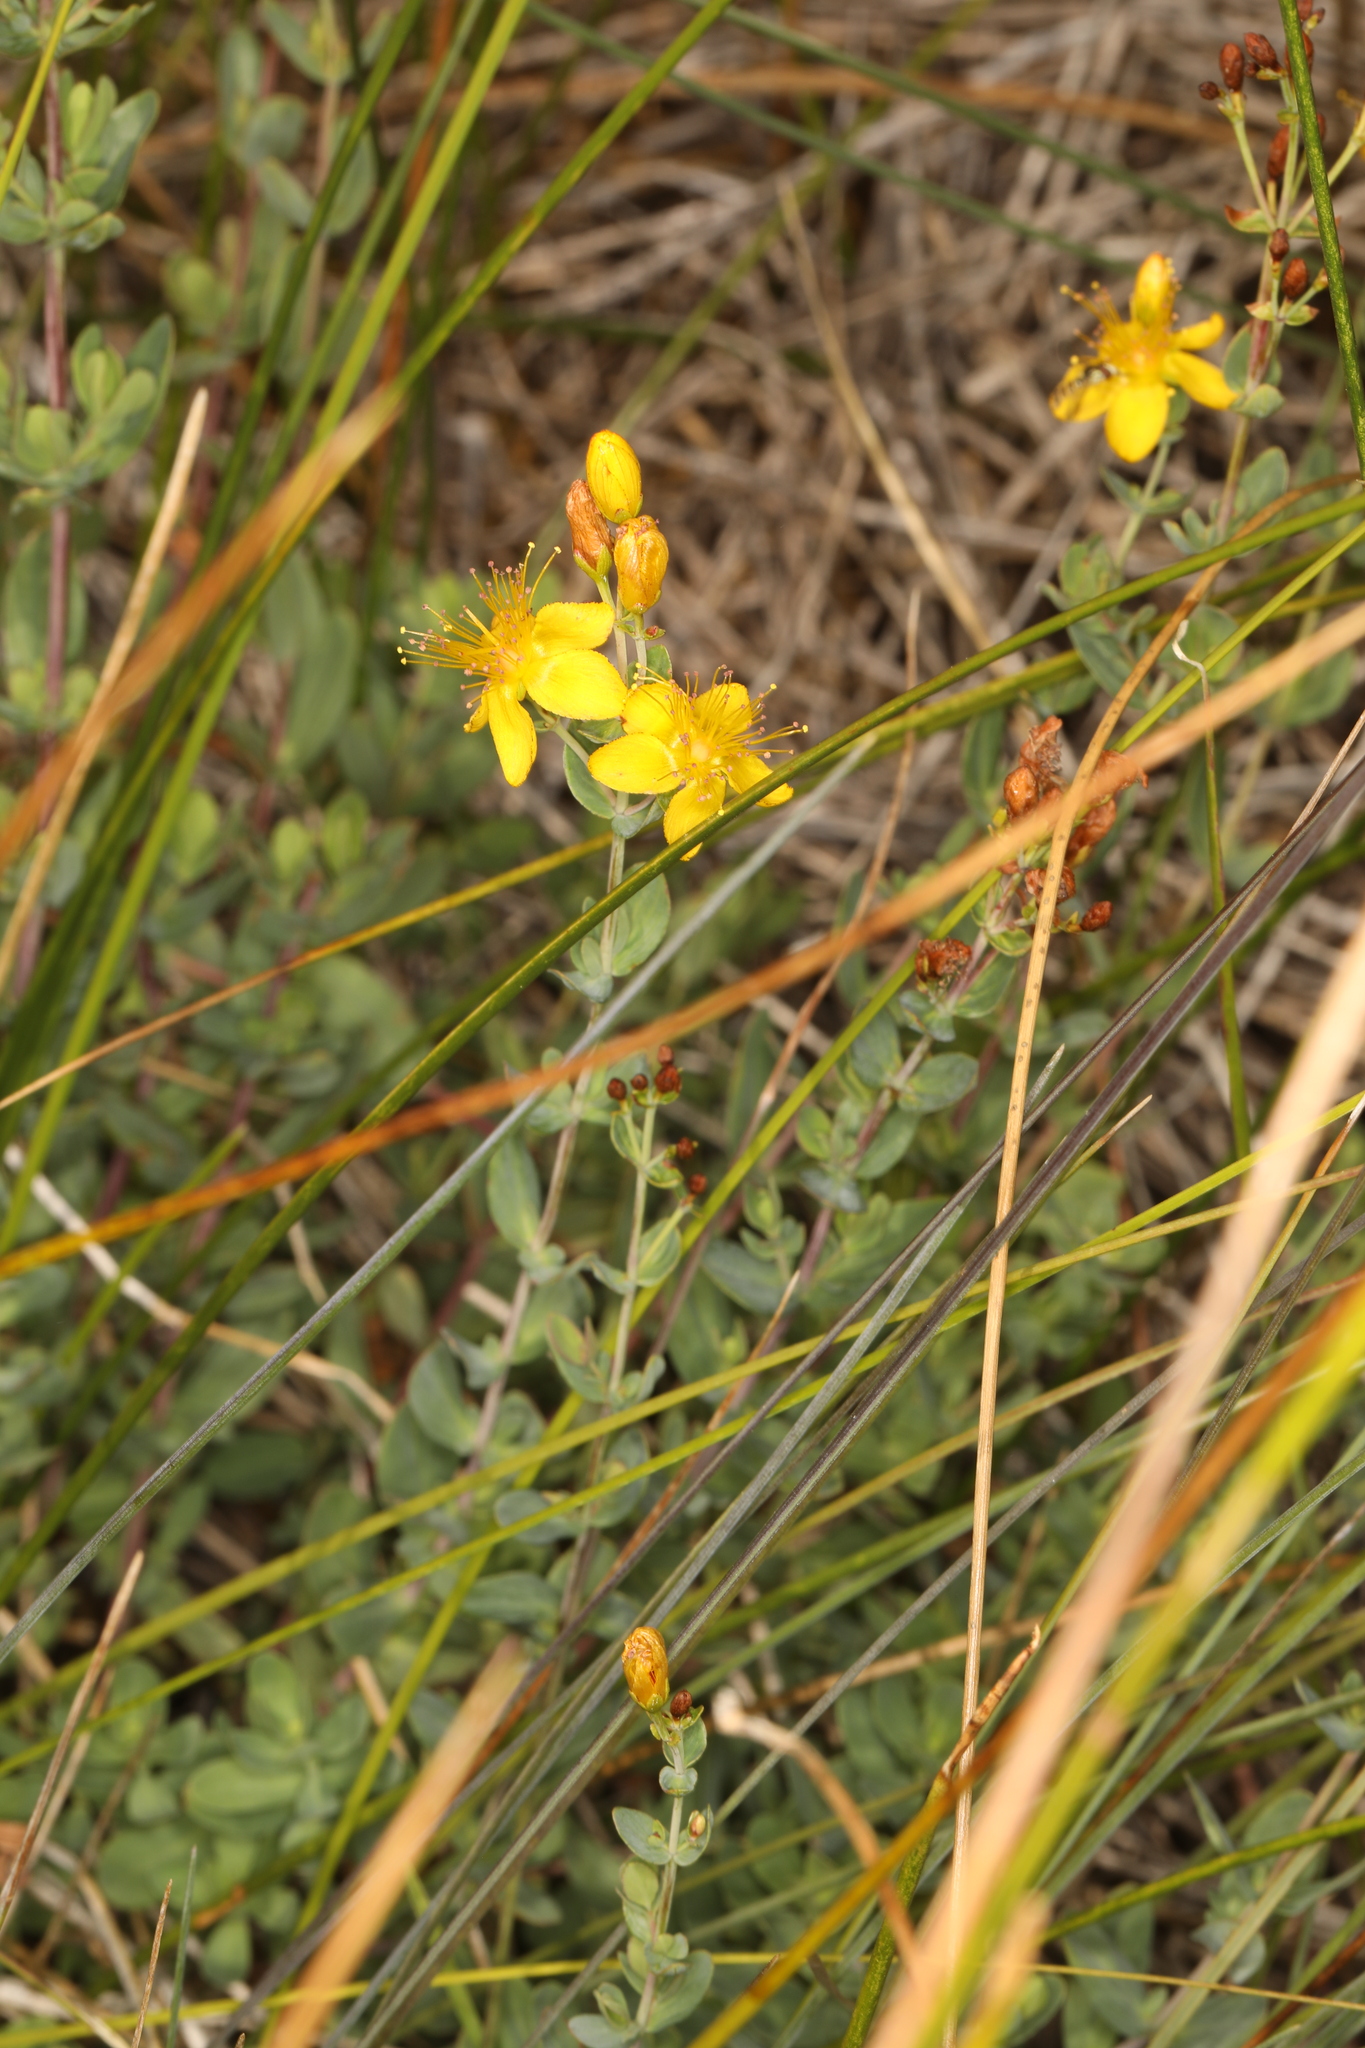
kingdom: Plantae
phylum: Tracheophyta
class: Magnoliopsida
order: Malpighiales
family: Hypericaceae
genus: Hypericum
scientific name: Hypericum scouleri
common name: Scouler's st. john's-wort
